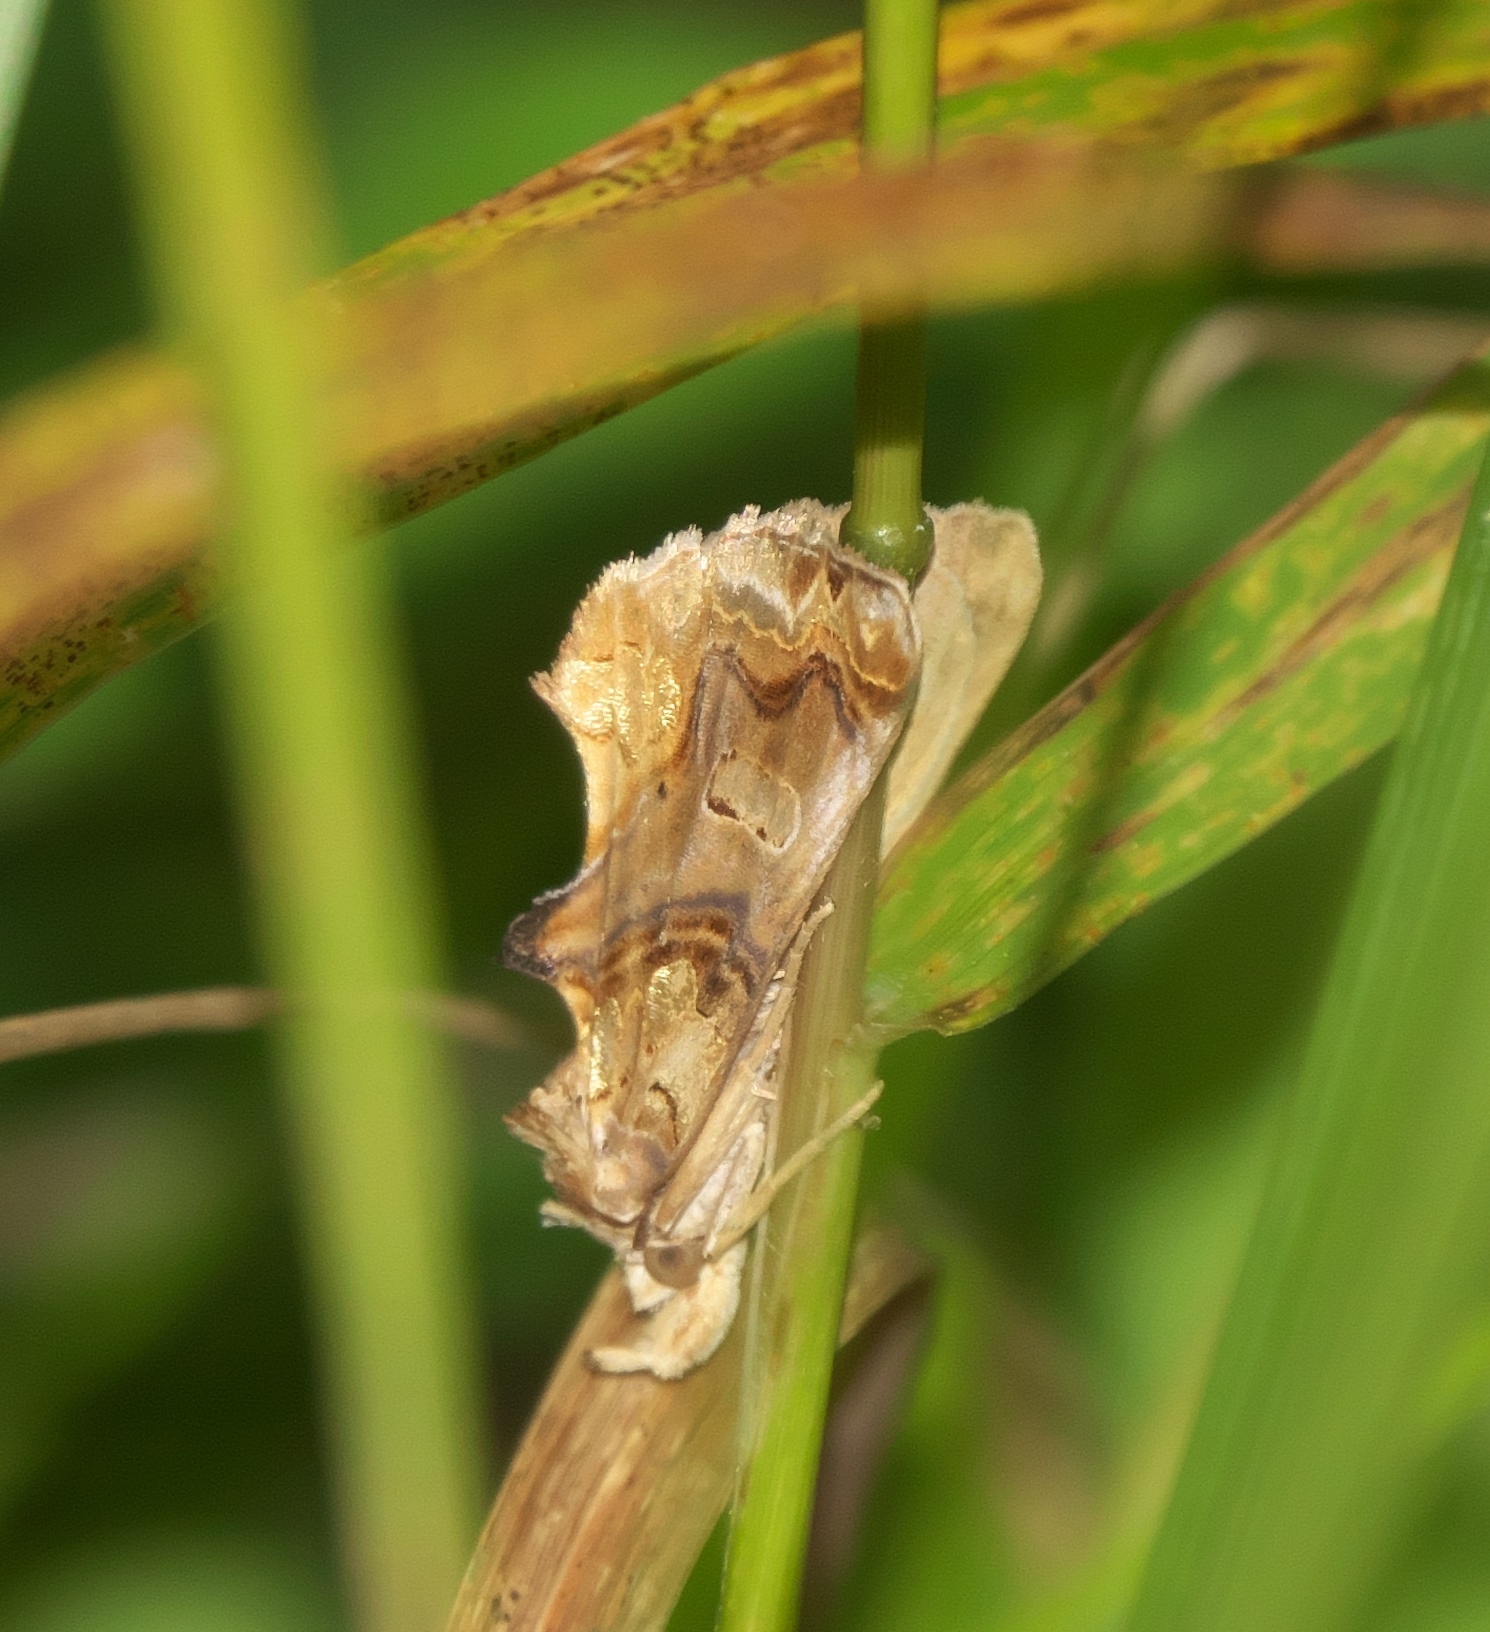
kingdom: Animalia
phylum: Arthropoda
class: Insecta
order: Lepidoptera
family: Erebidae
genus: Plusiodonta
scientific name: Plusiodonta compressipalpis
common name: Moonseed moth
